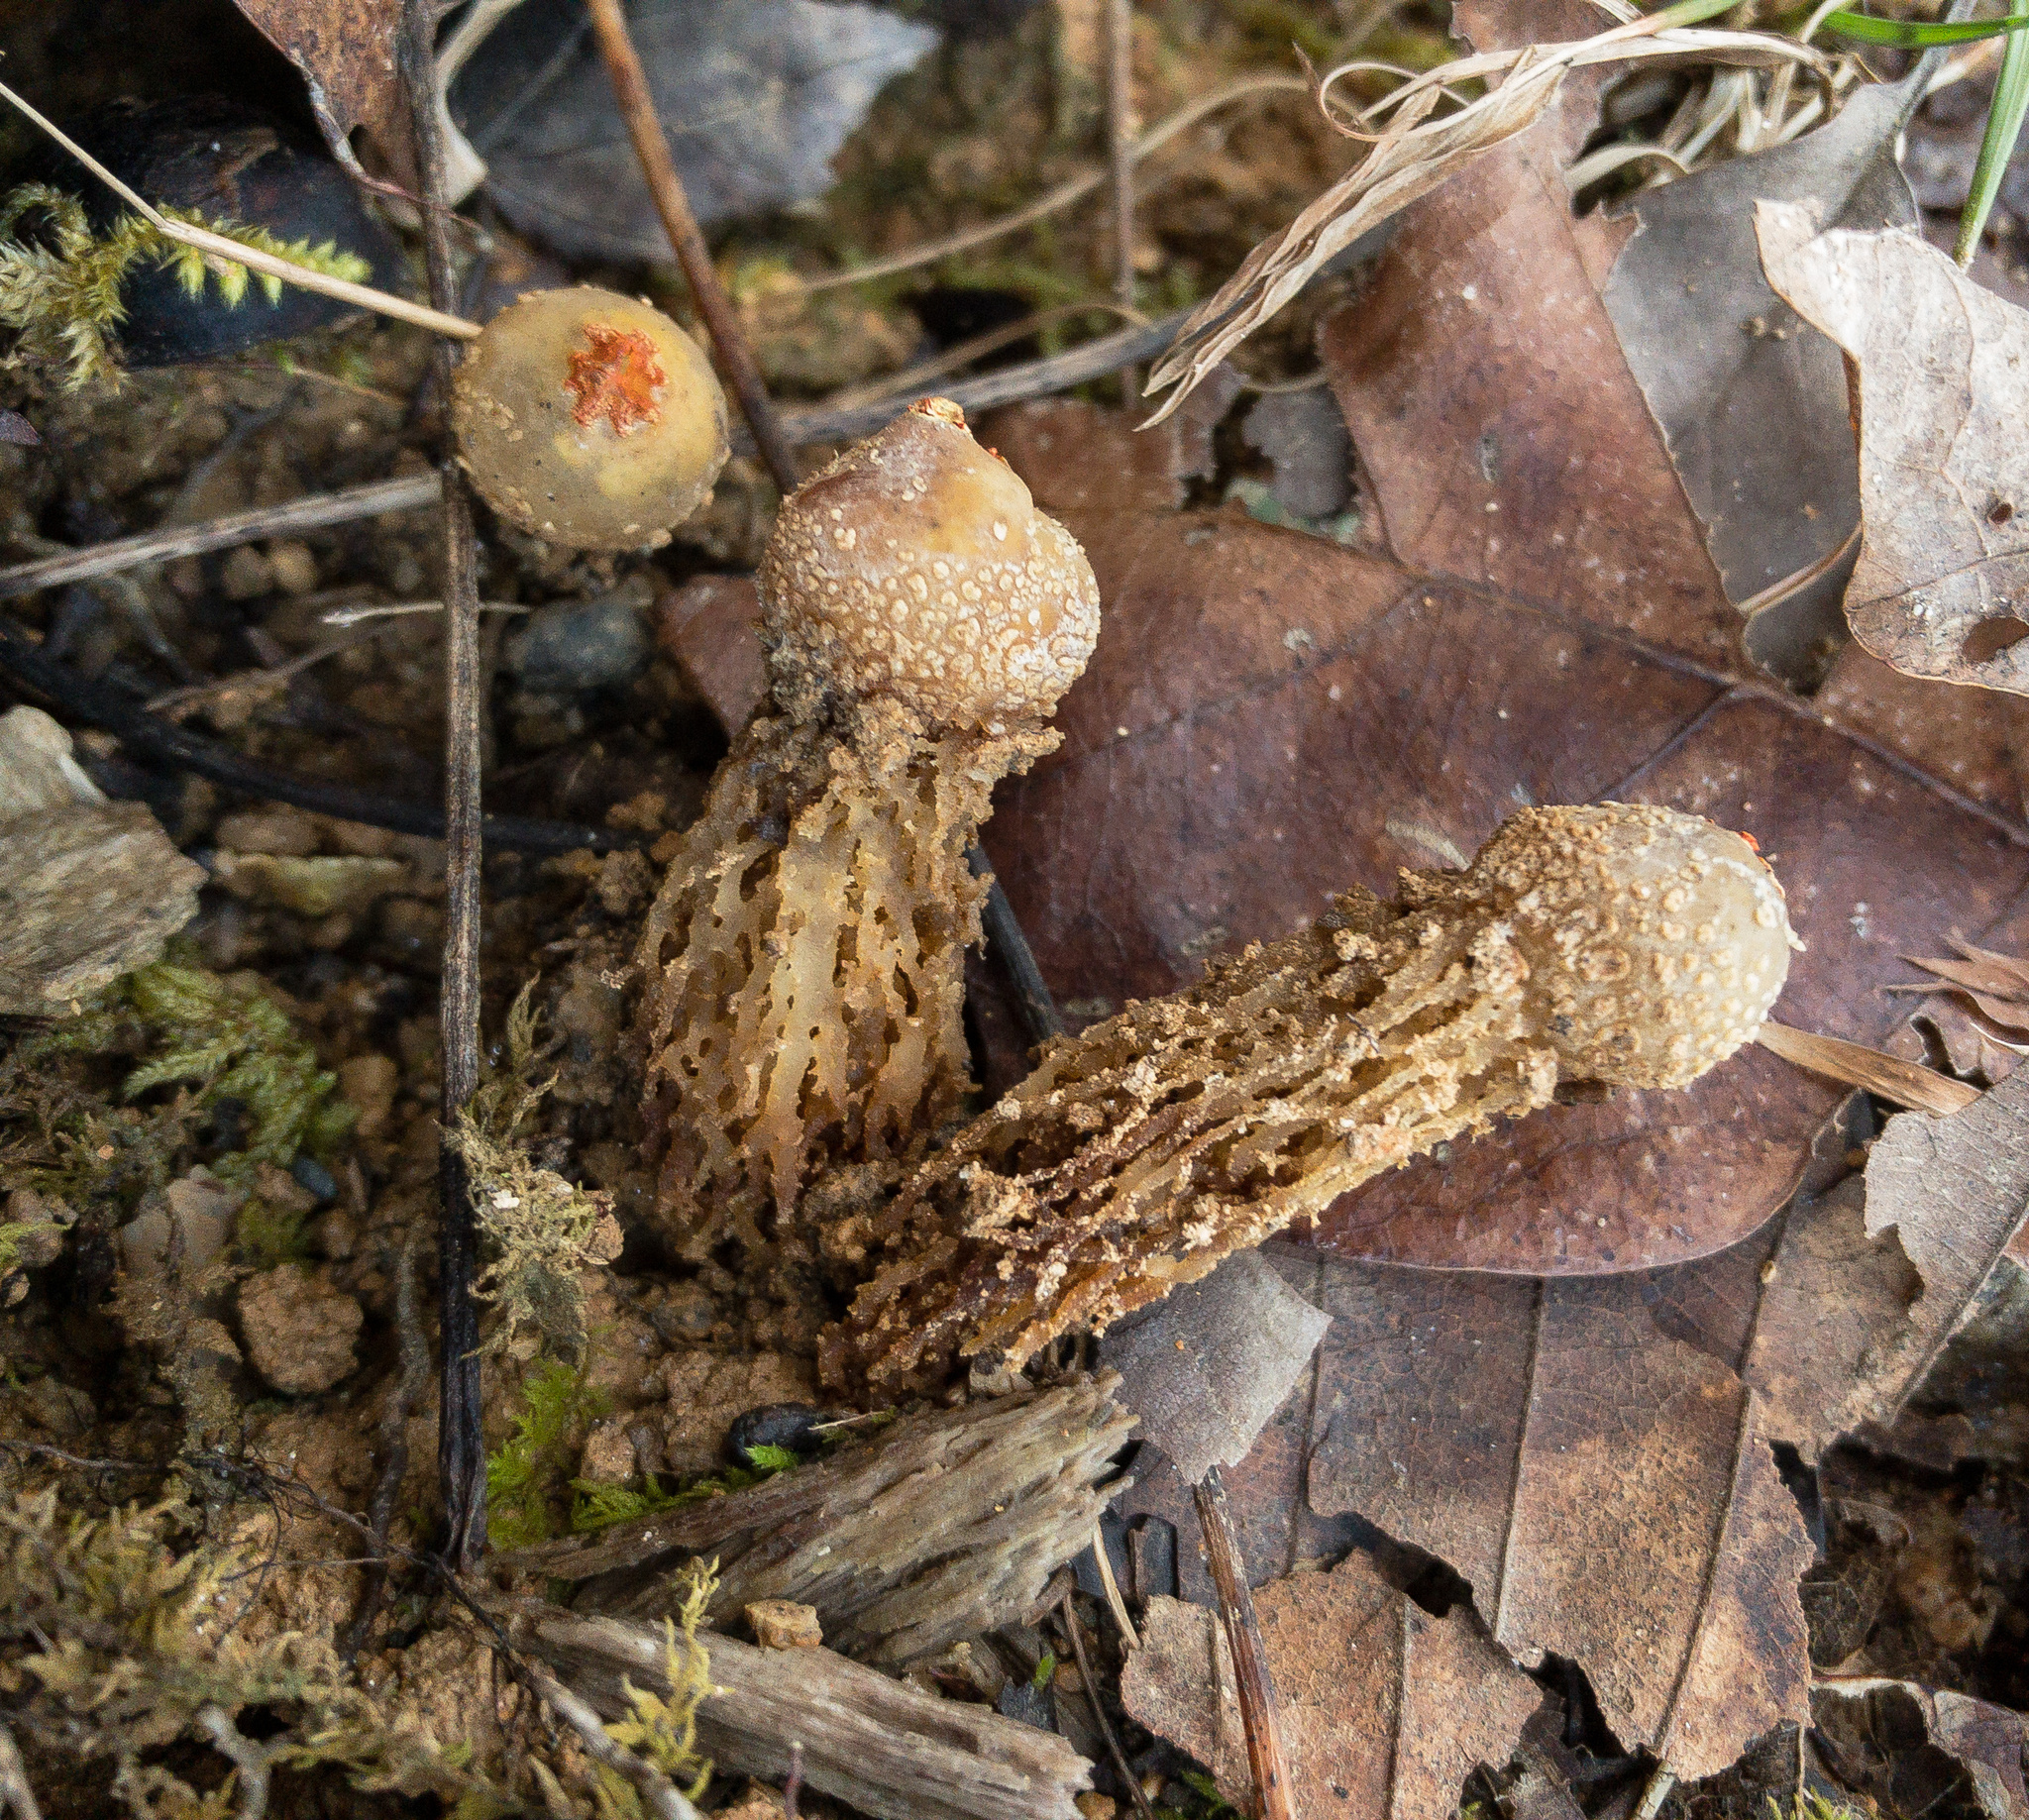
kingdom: Fungi
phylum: Basidiomycota
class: Agaricomycetes
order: Boletales
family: Calostomataceae
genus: Calostoma
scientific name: Calostoma ravenelii
